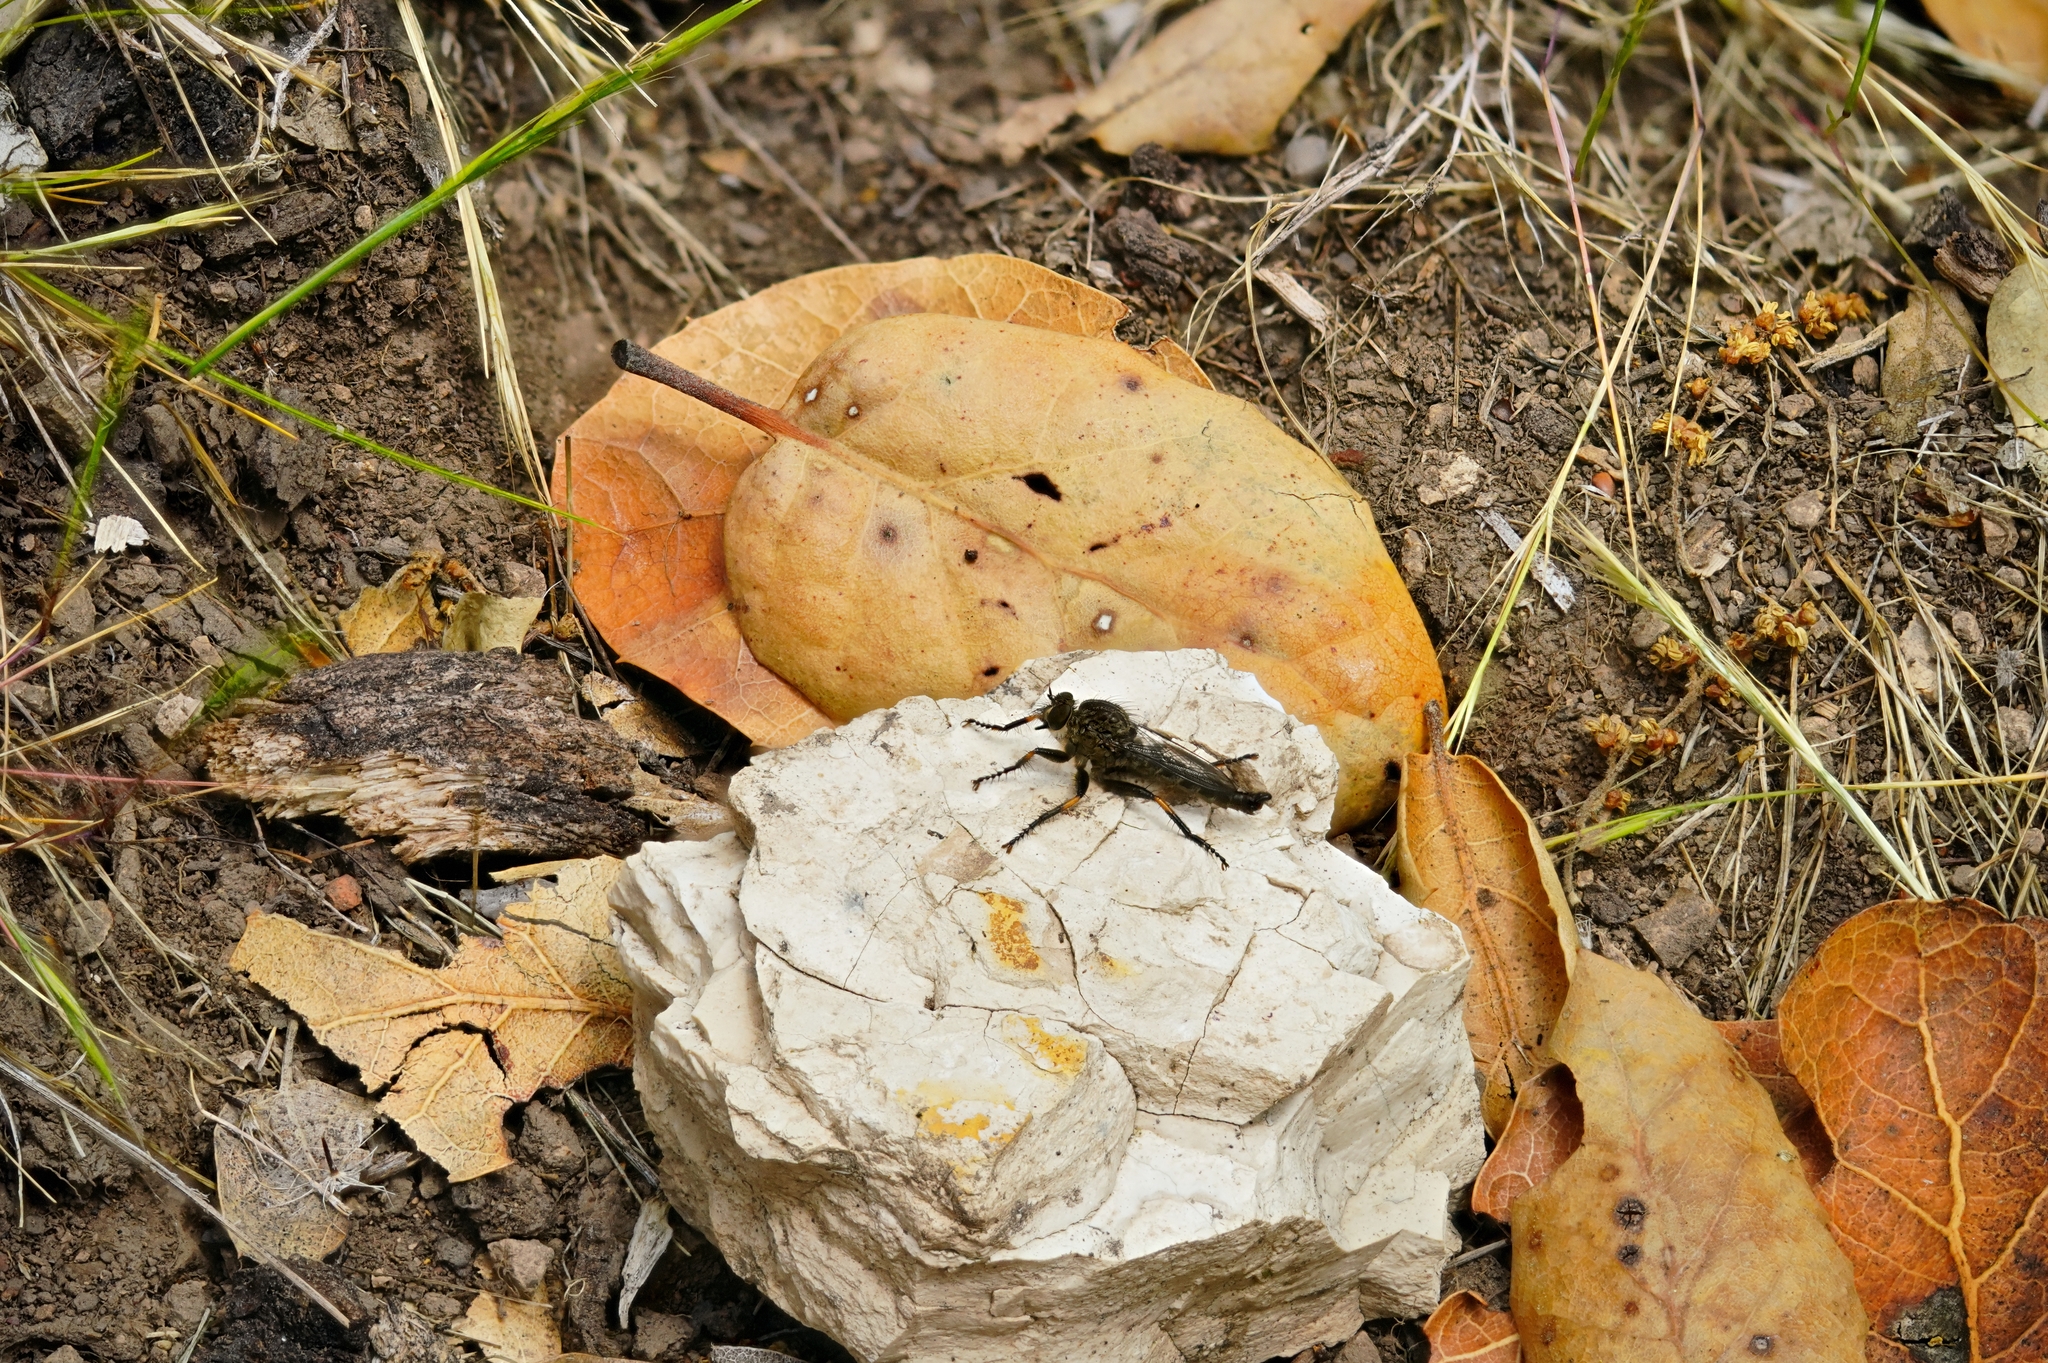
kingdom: Animalia
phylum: Arthropoda
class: Insecta
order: Diptera
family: Asilidae
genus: Machimus
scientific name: Machimus occidentalis
